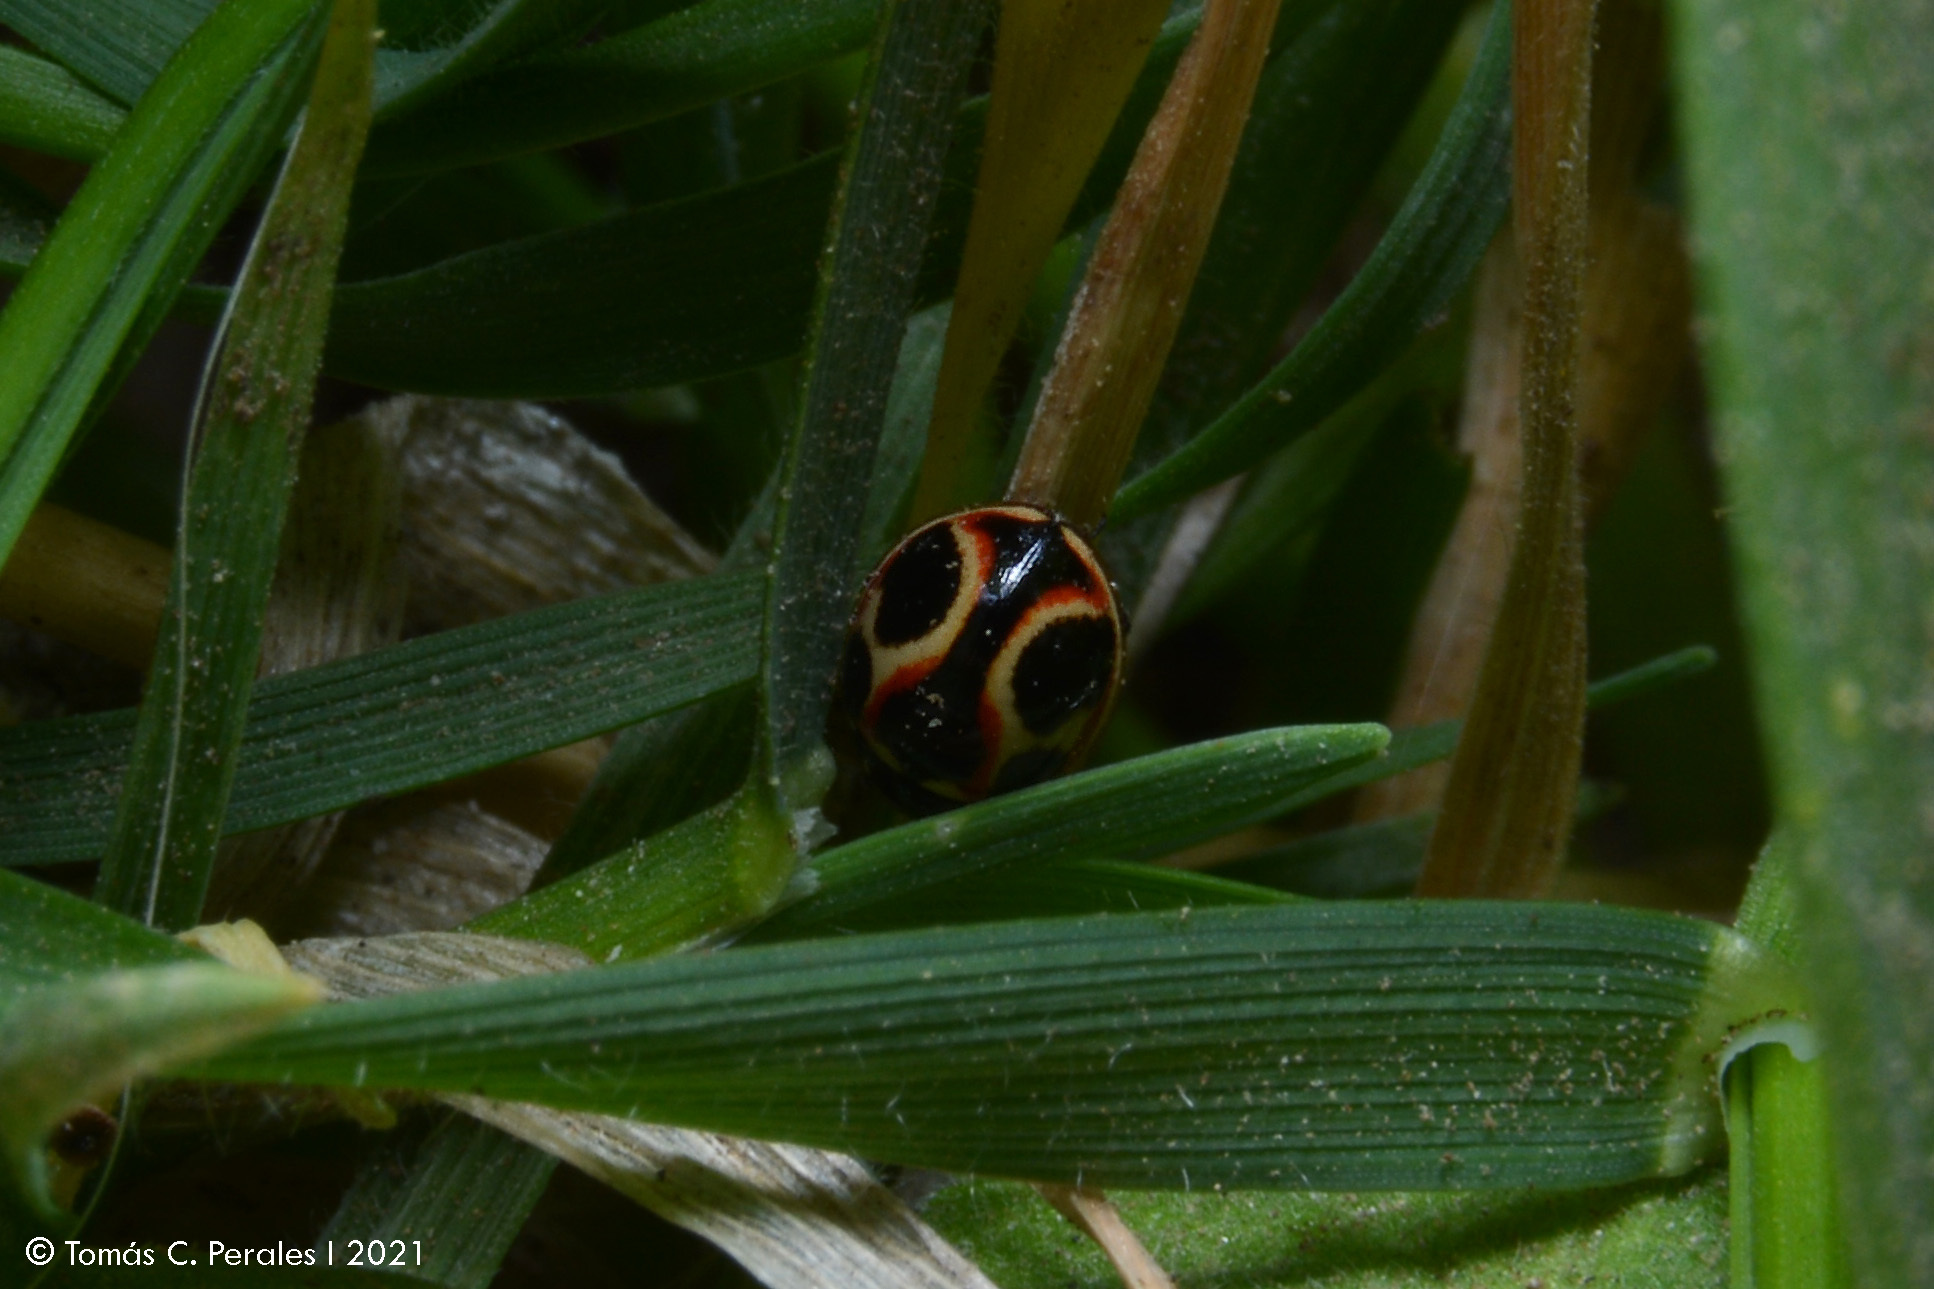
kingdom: Animalia
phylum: Arthropoda
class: Insecta
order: Coleoptera
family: Coccinellidae
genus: Cycloneda
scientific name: Cycloneda ancoralis
